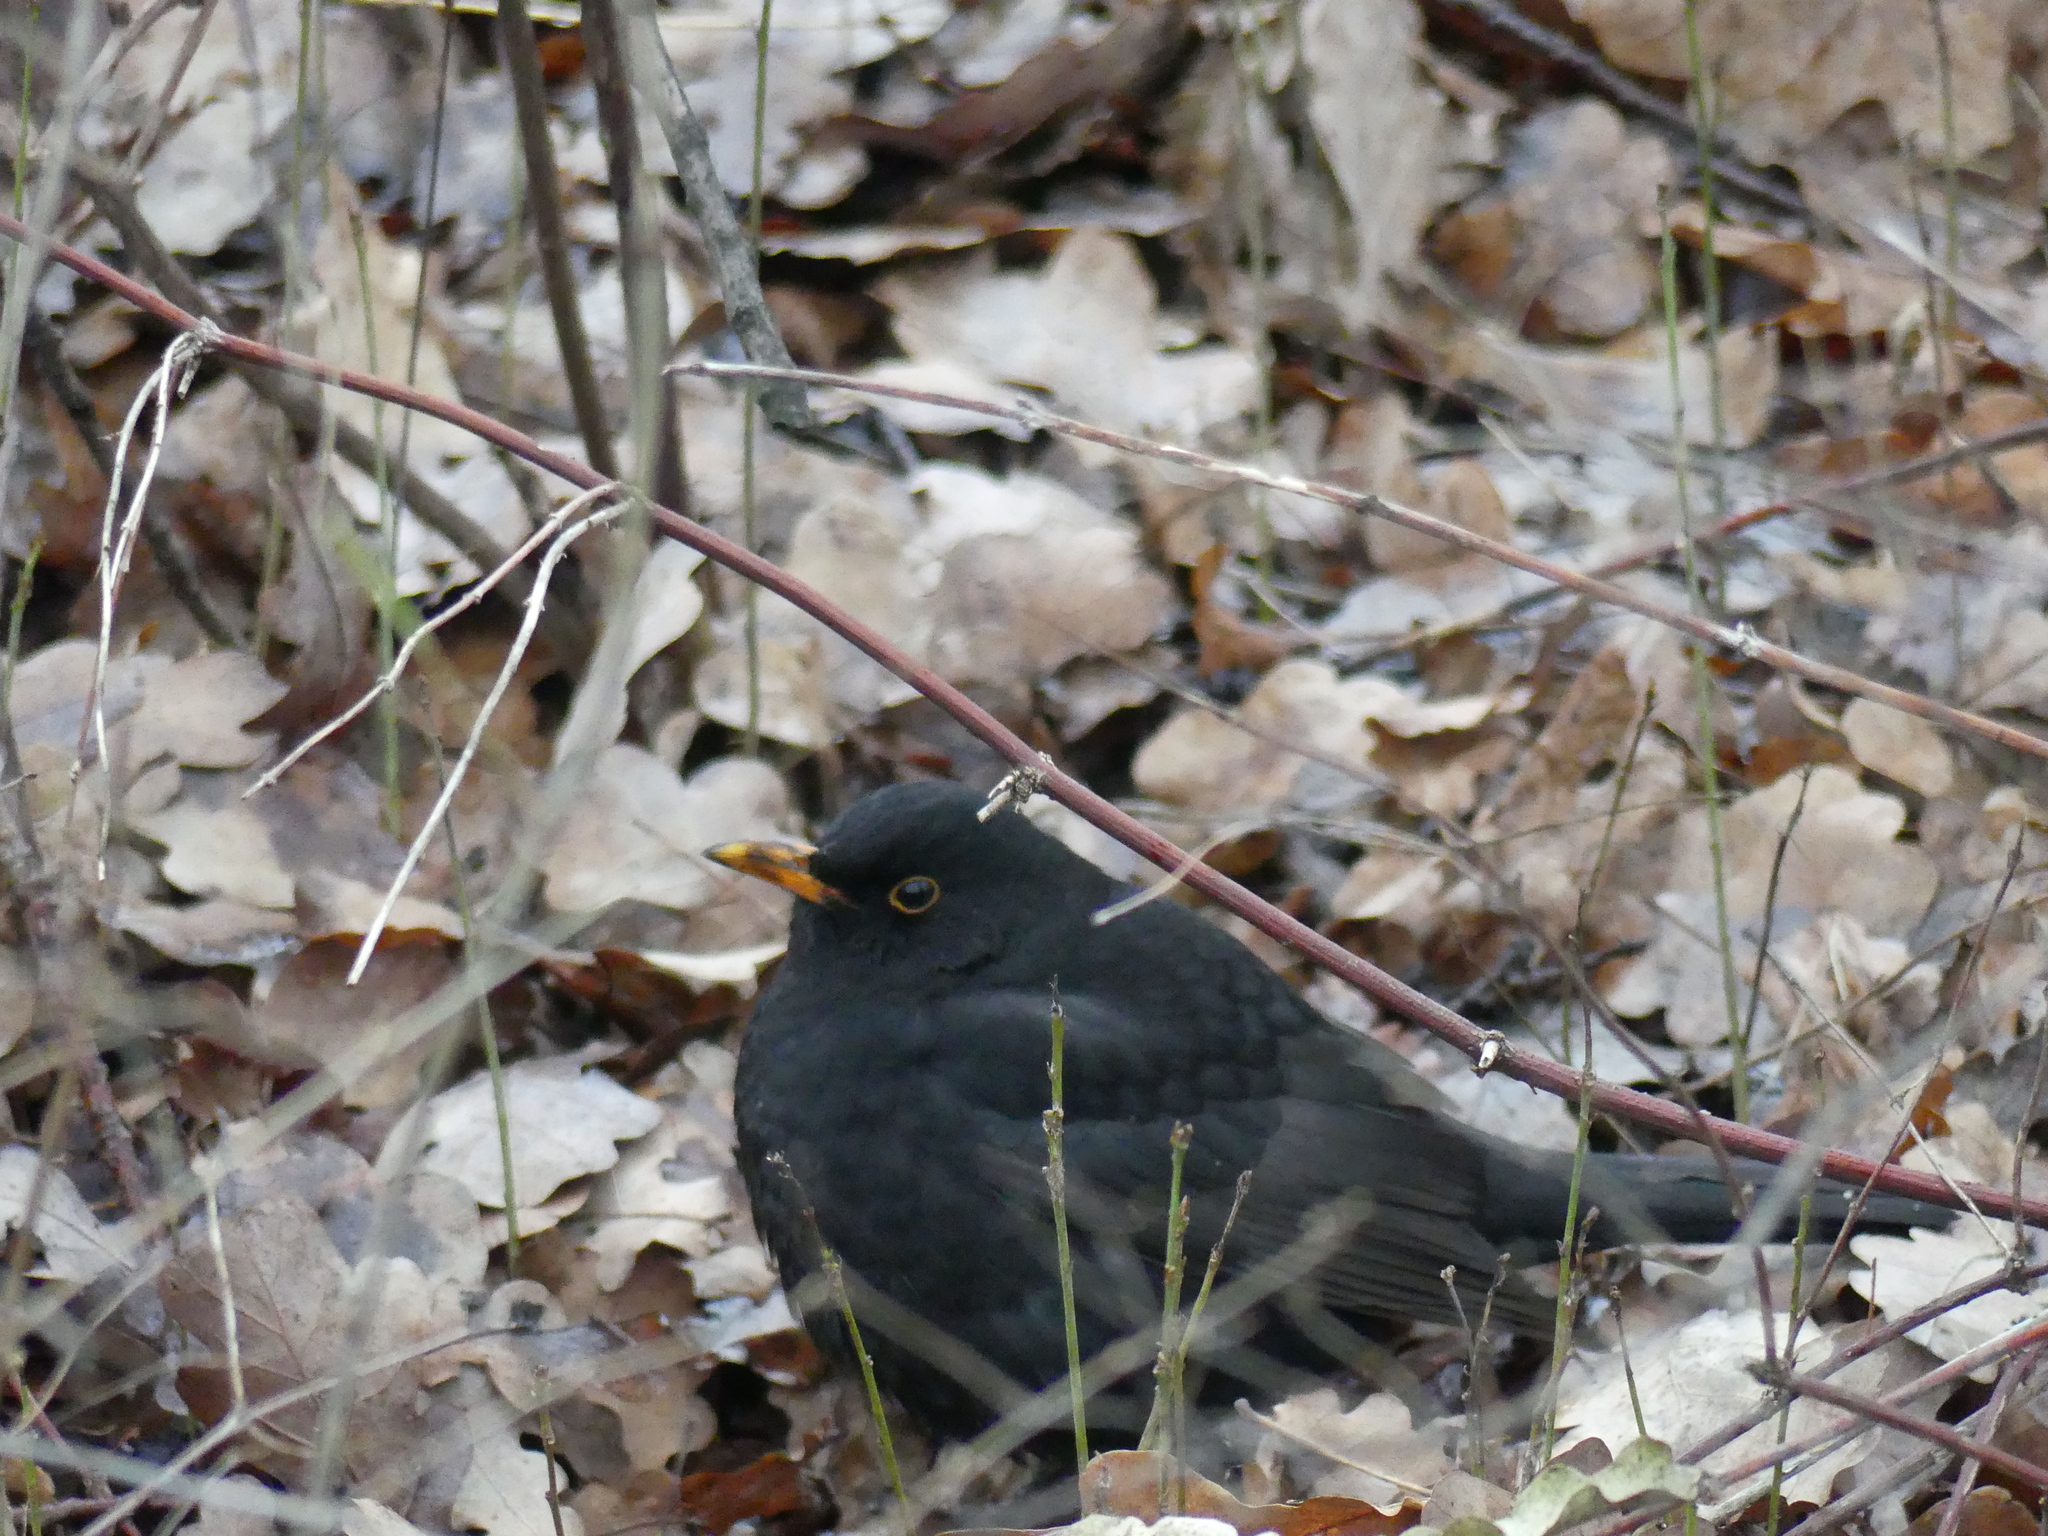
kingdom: Animalia
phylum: Chordata
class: Aves
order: Passeriformes
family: Turdidae
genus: Turdus
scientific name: Turdus merula
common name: Common blackbird
